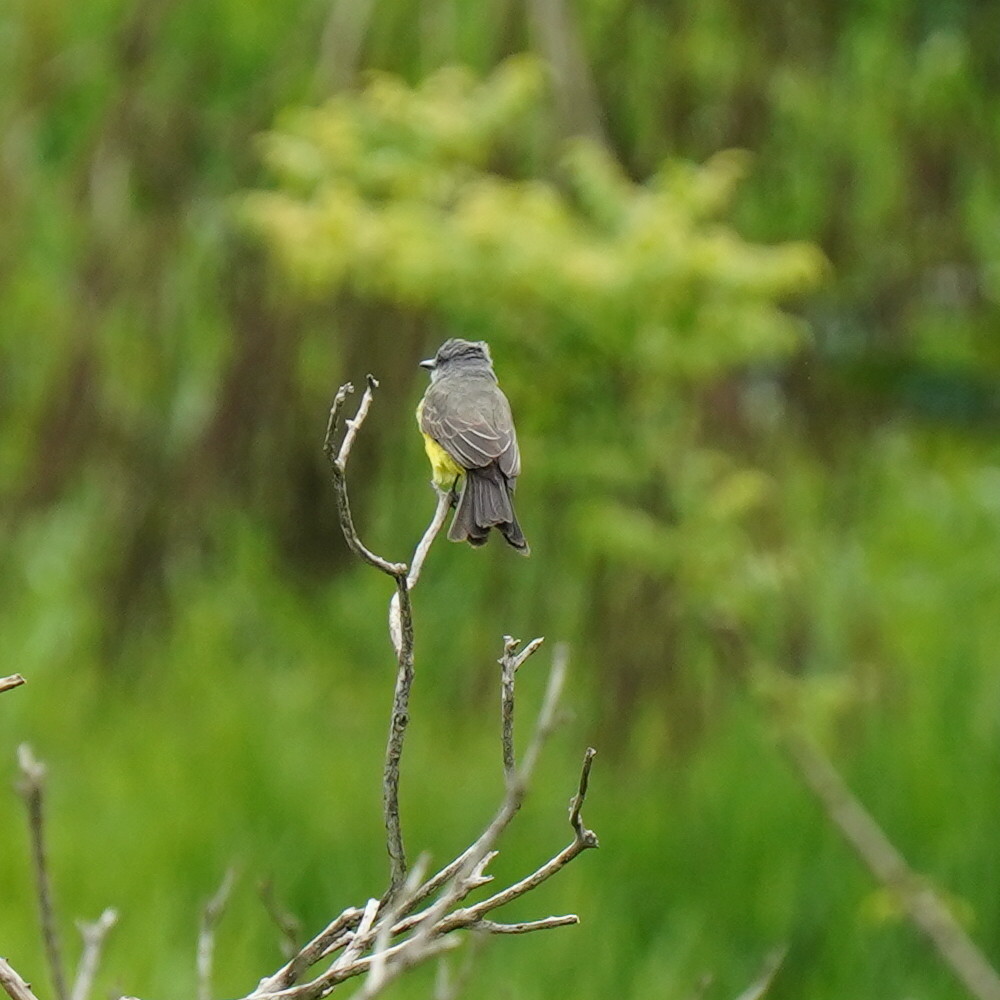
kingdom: Animalia
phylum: Chordata
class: Aves
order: Passeriformes
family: Tyrannidae
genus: Tyrannus
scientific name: Tyrannus melancholicus
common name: Tropical kingbird
